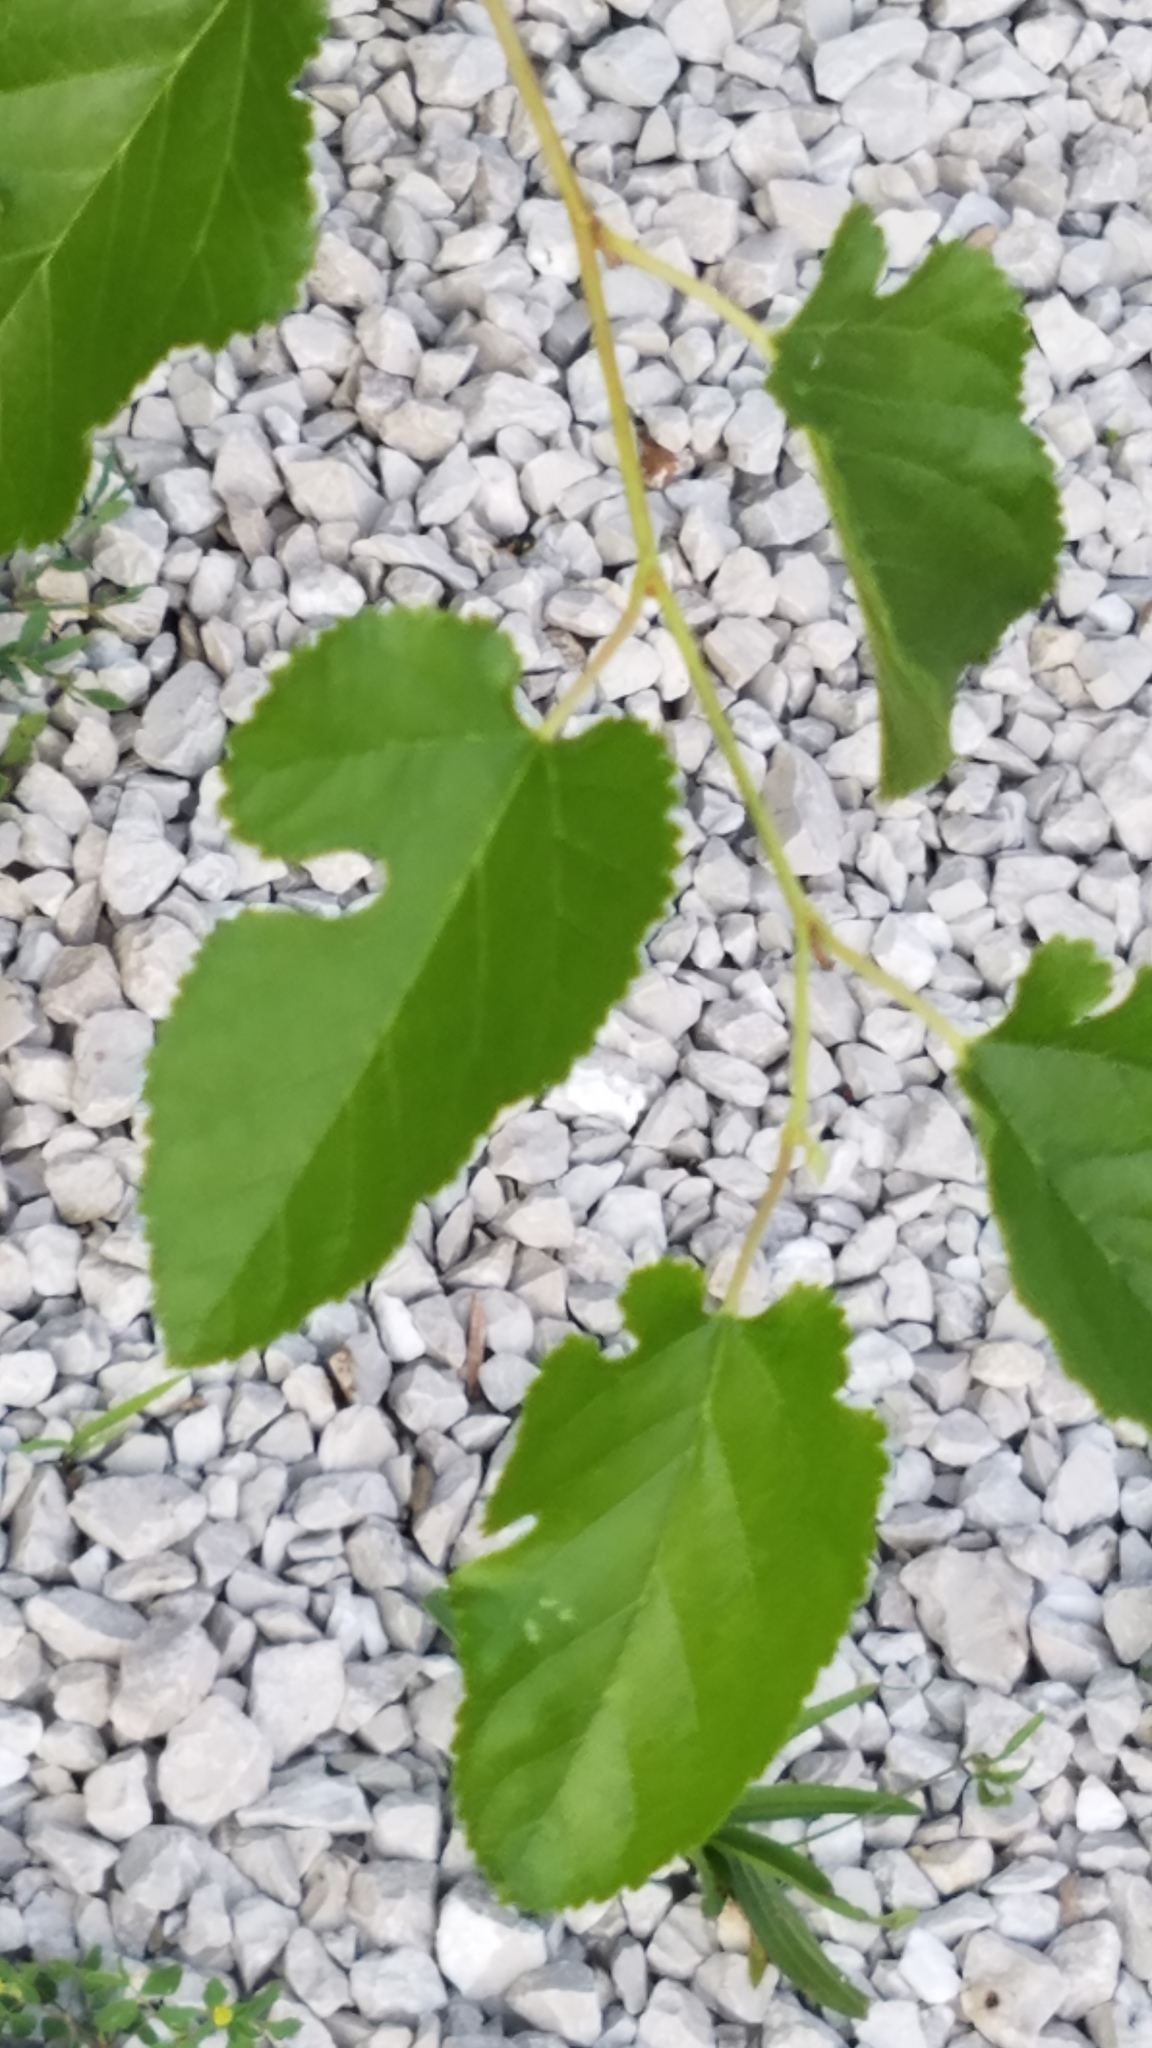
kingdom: Plantae
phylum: Tracheophyta
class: Magnoliopsida
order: Rosales
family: Moraceae
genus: Morus
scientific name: Morus alba
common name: White mulberry
